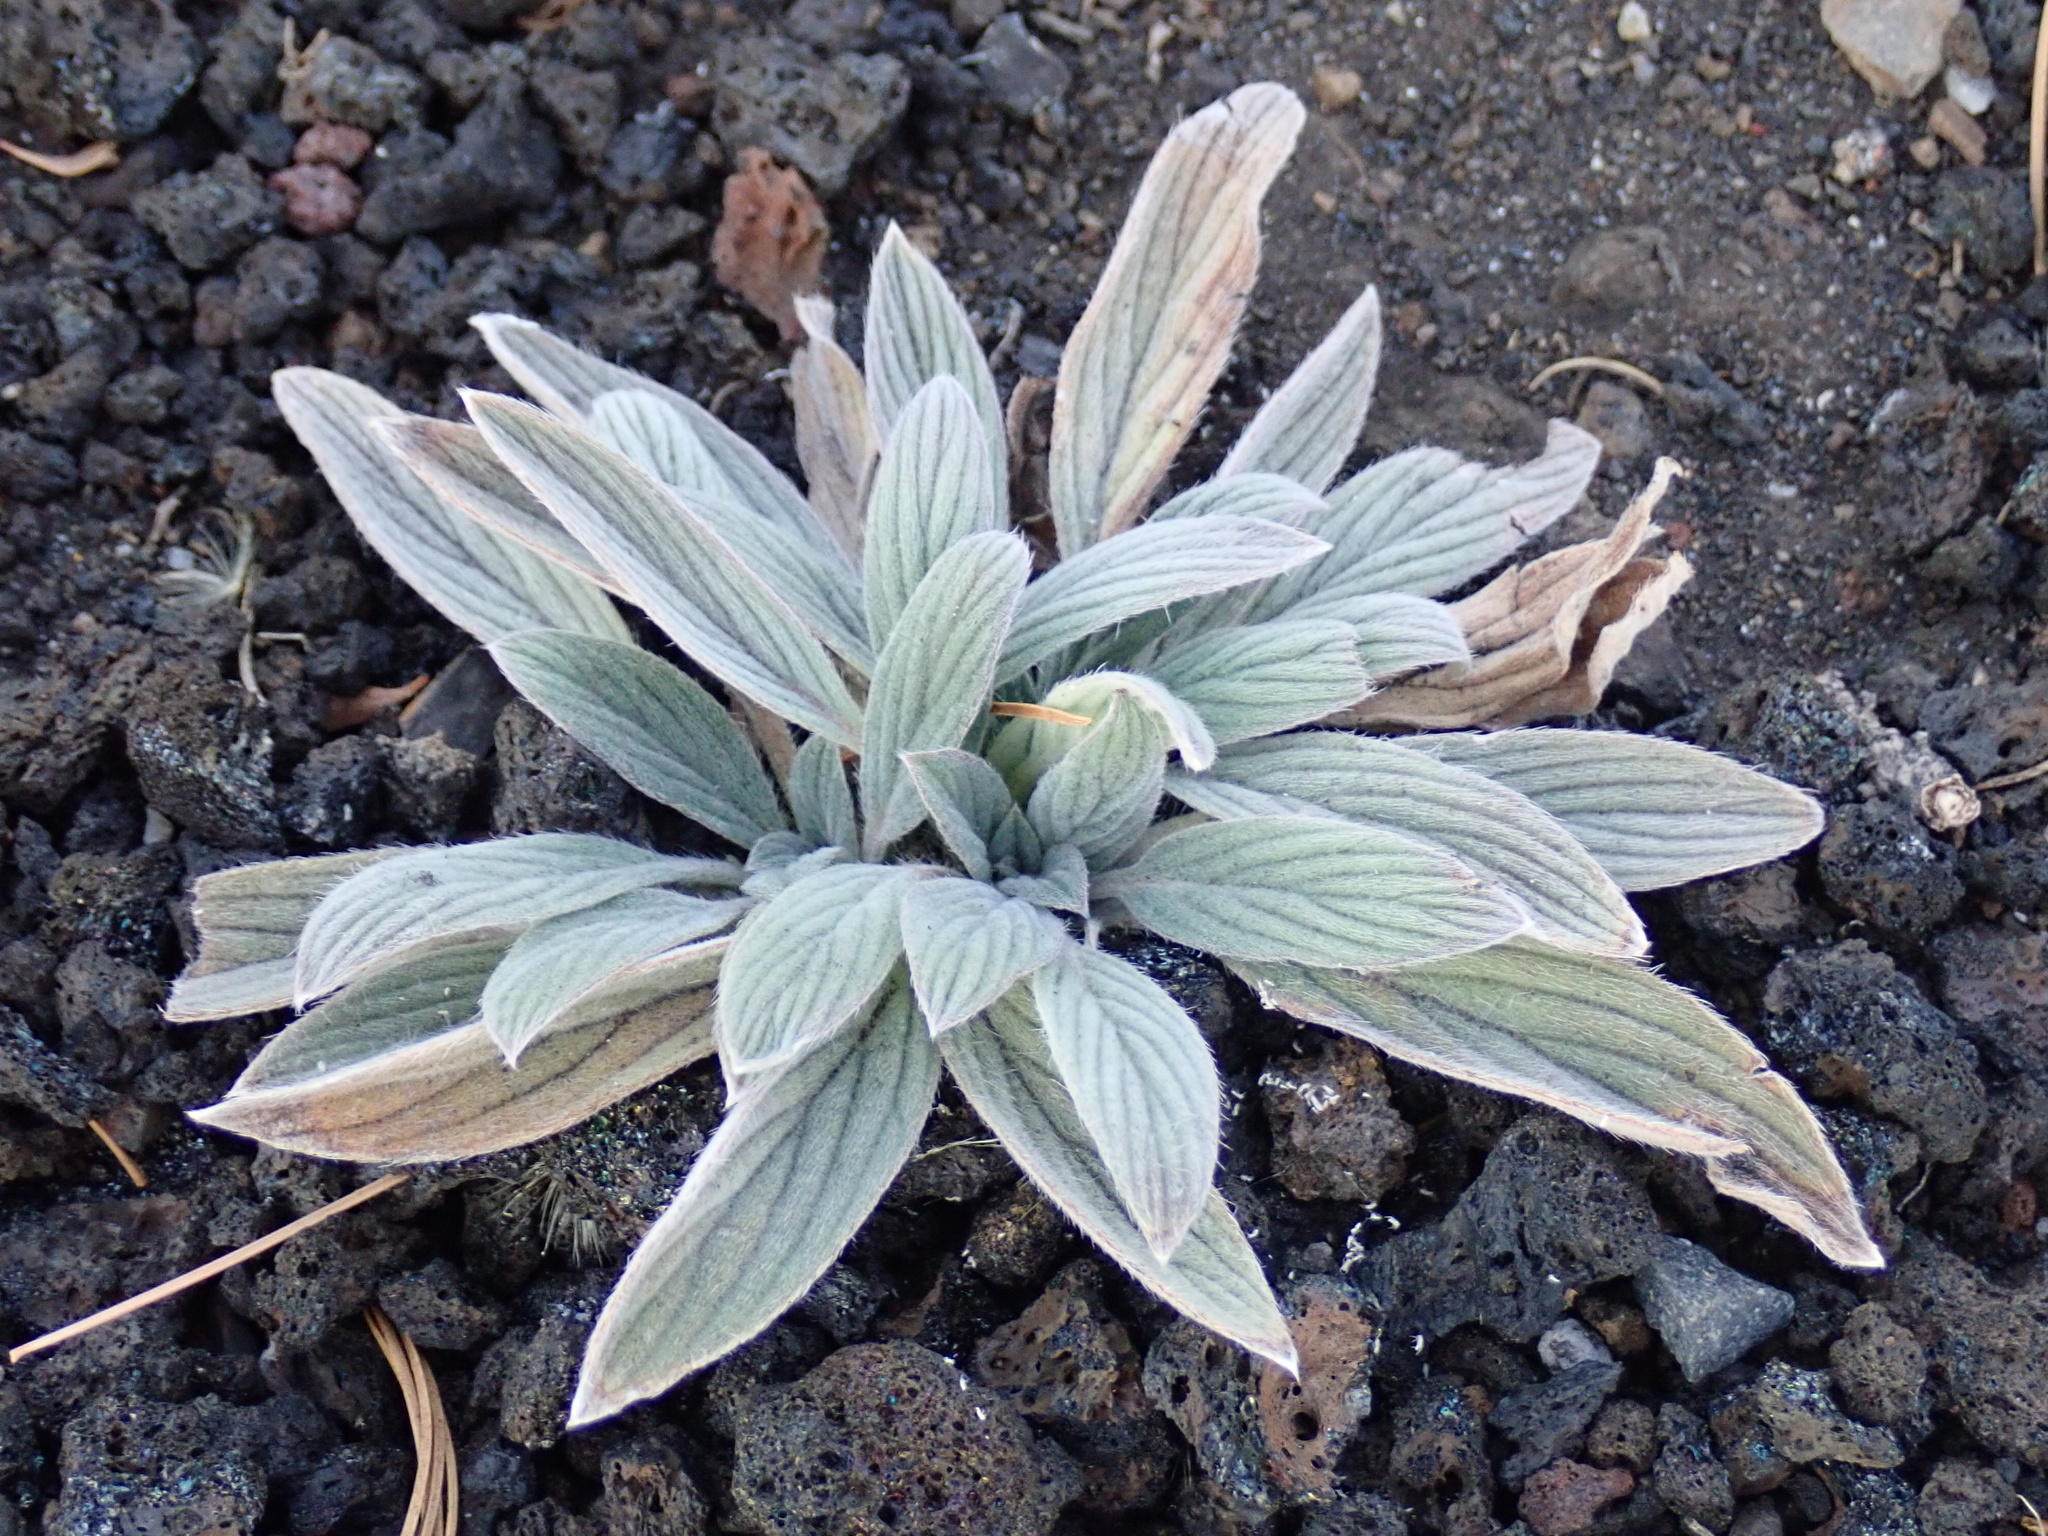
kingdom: Plantae
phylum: Tracheophyta
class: Magnoliopsida
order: Boraginales
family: Hydrophyllaceae
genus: Phacelia
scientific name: Phacelia hastata
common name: Silver-leaved phacelia
